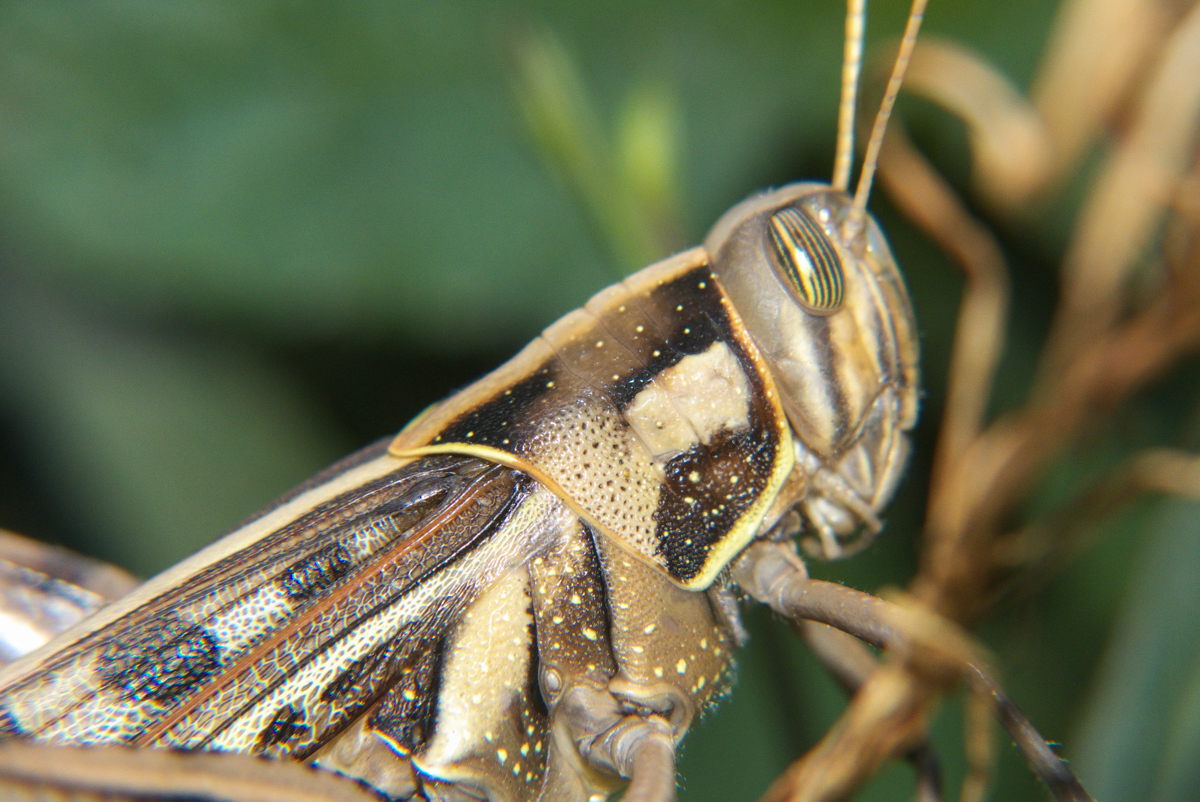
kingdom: Animalia
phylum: Arthropoda
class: Insecta
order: Orthoptera
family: Acrididae
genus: Cyrtacanthacris
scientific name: Cyrtacanthacris tatarica
